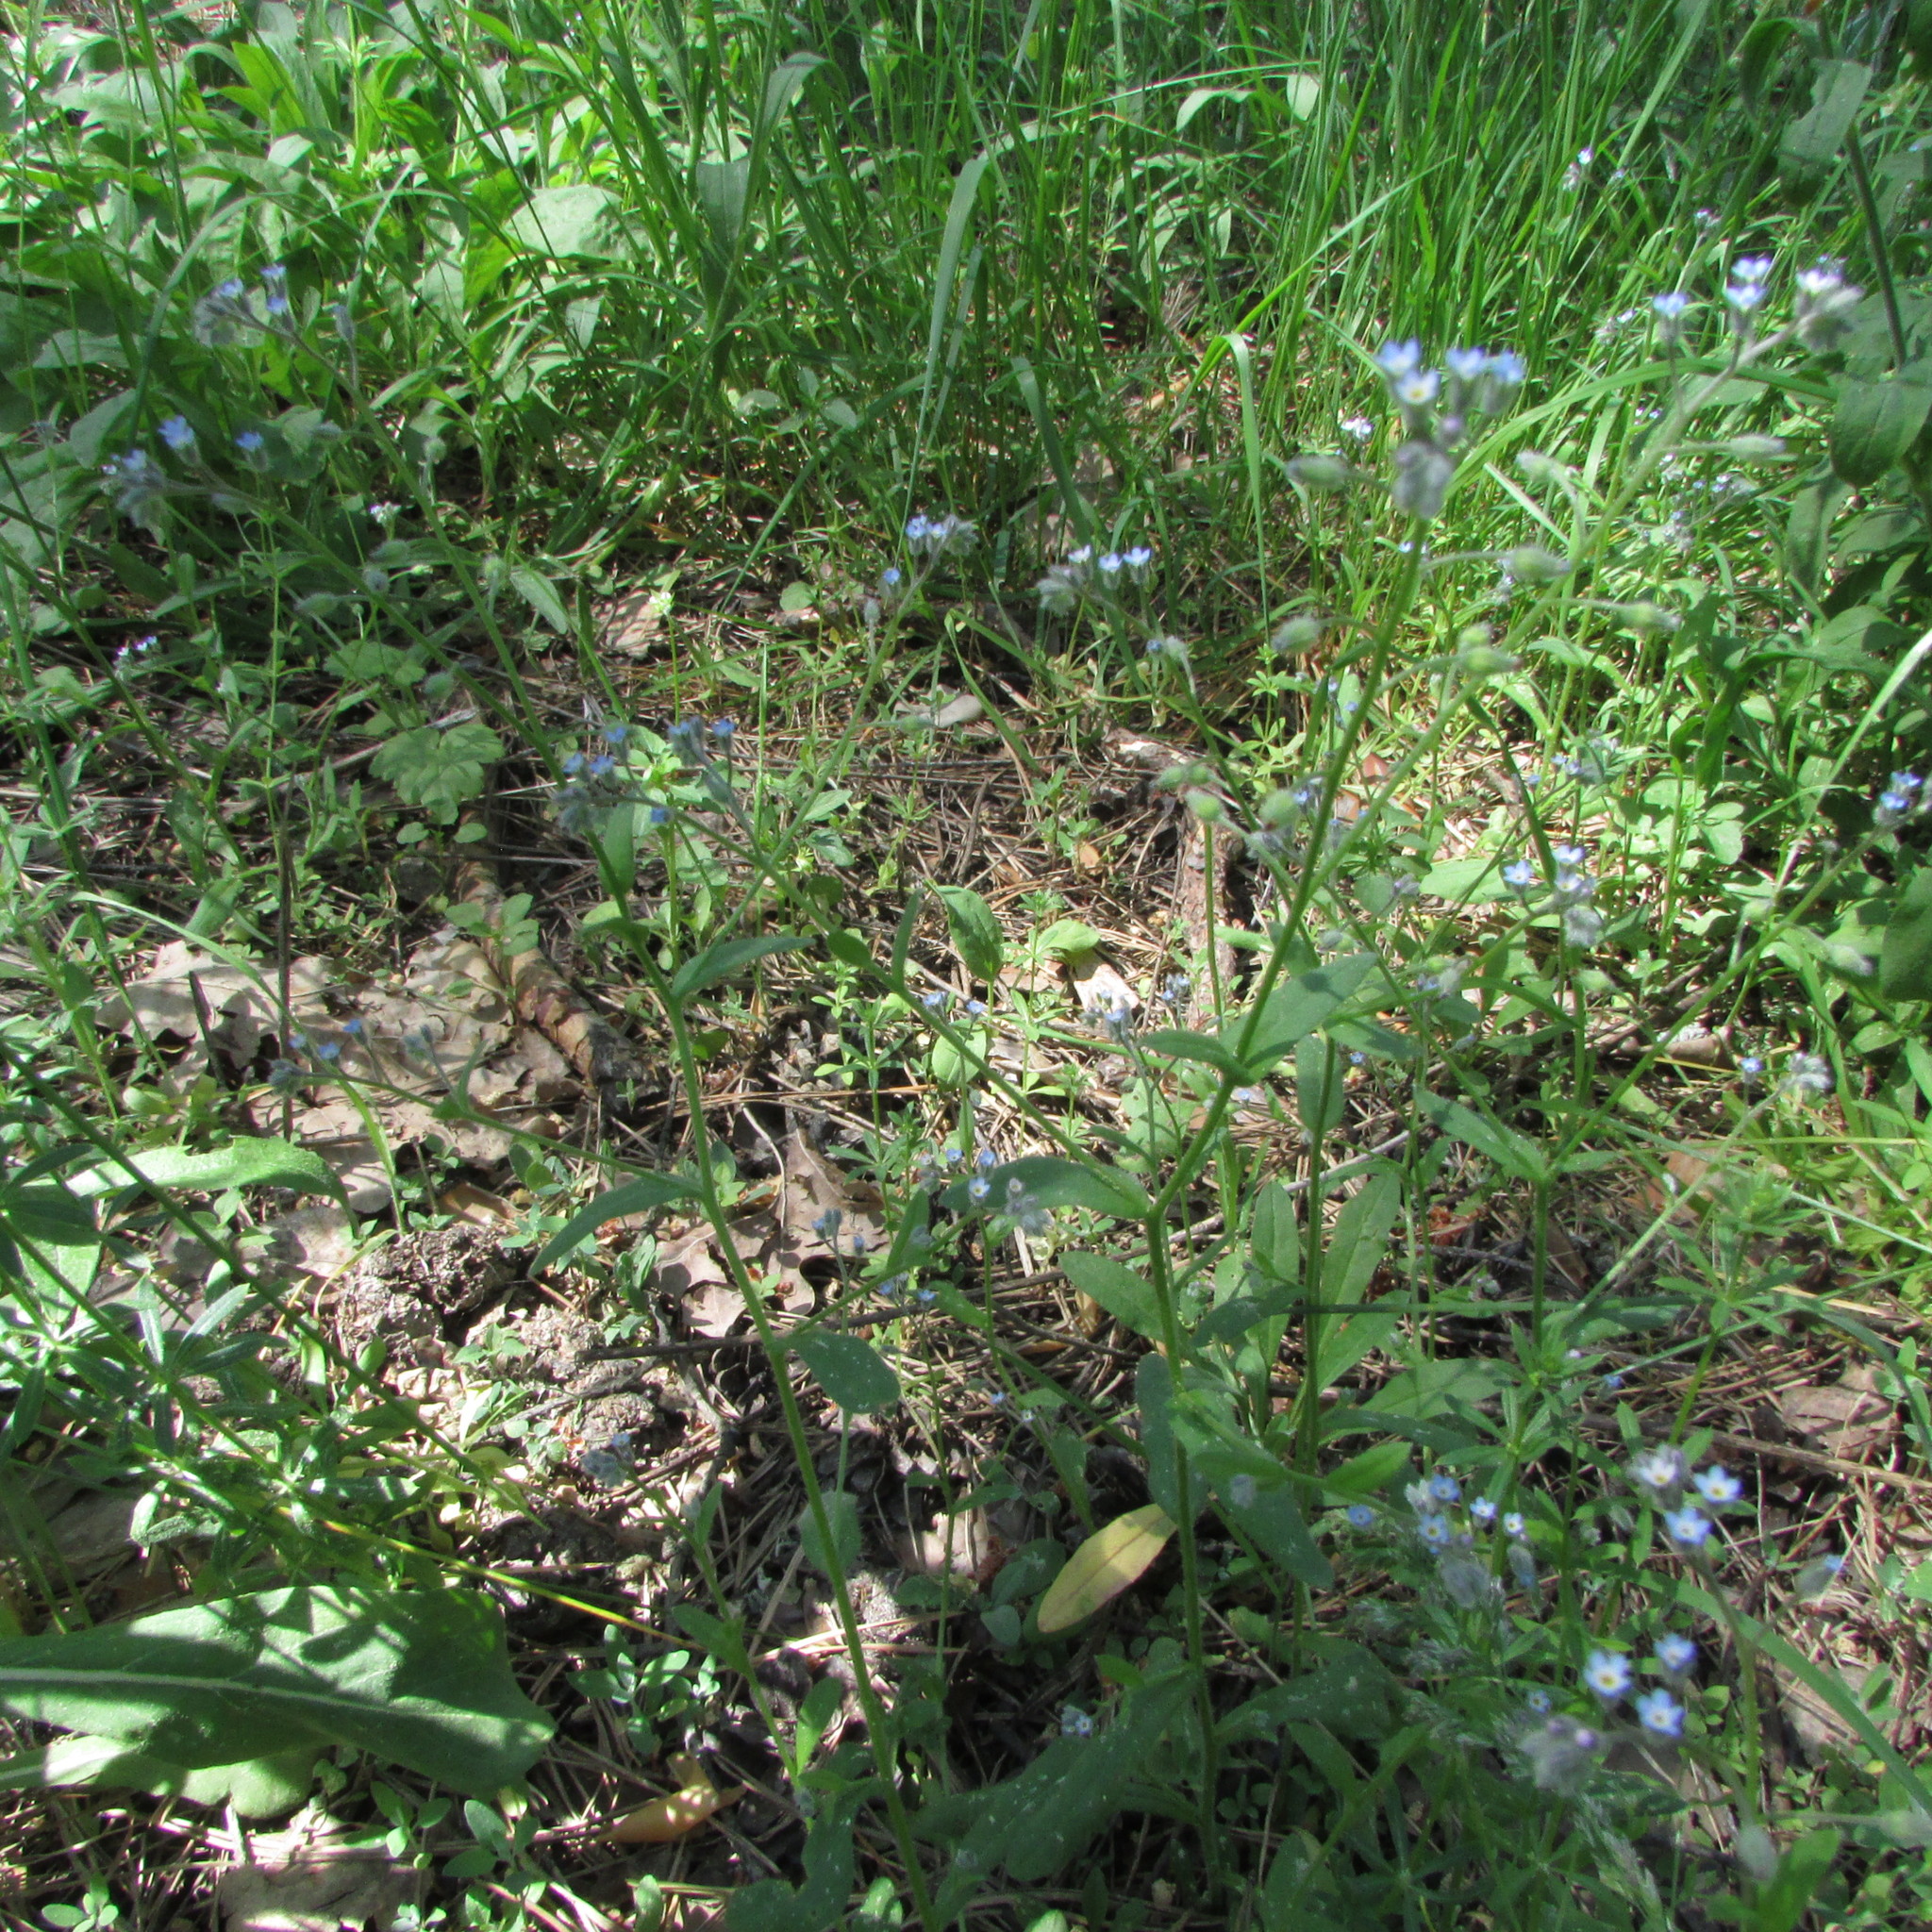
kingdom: Plantae
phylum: Tracheophyta
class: Magnoliopsida
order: Boraginales
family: Boraginaceae
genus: Myosotis
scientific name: Myosotis arvensis
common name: Field forget-me-not
